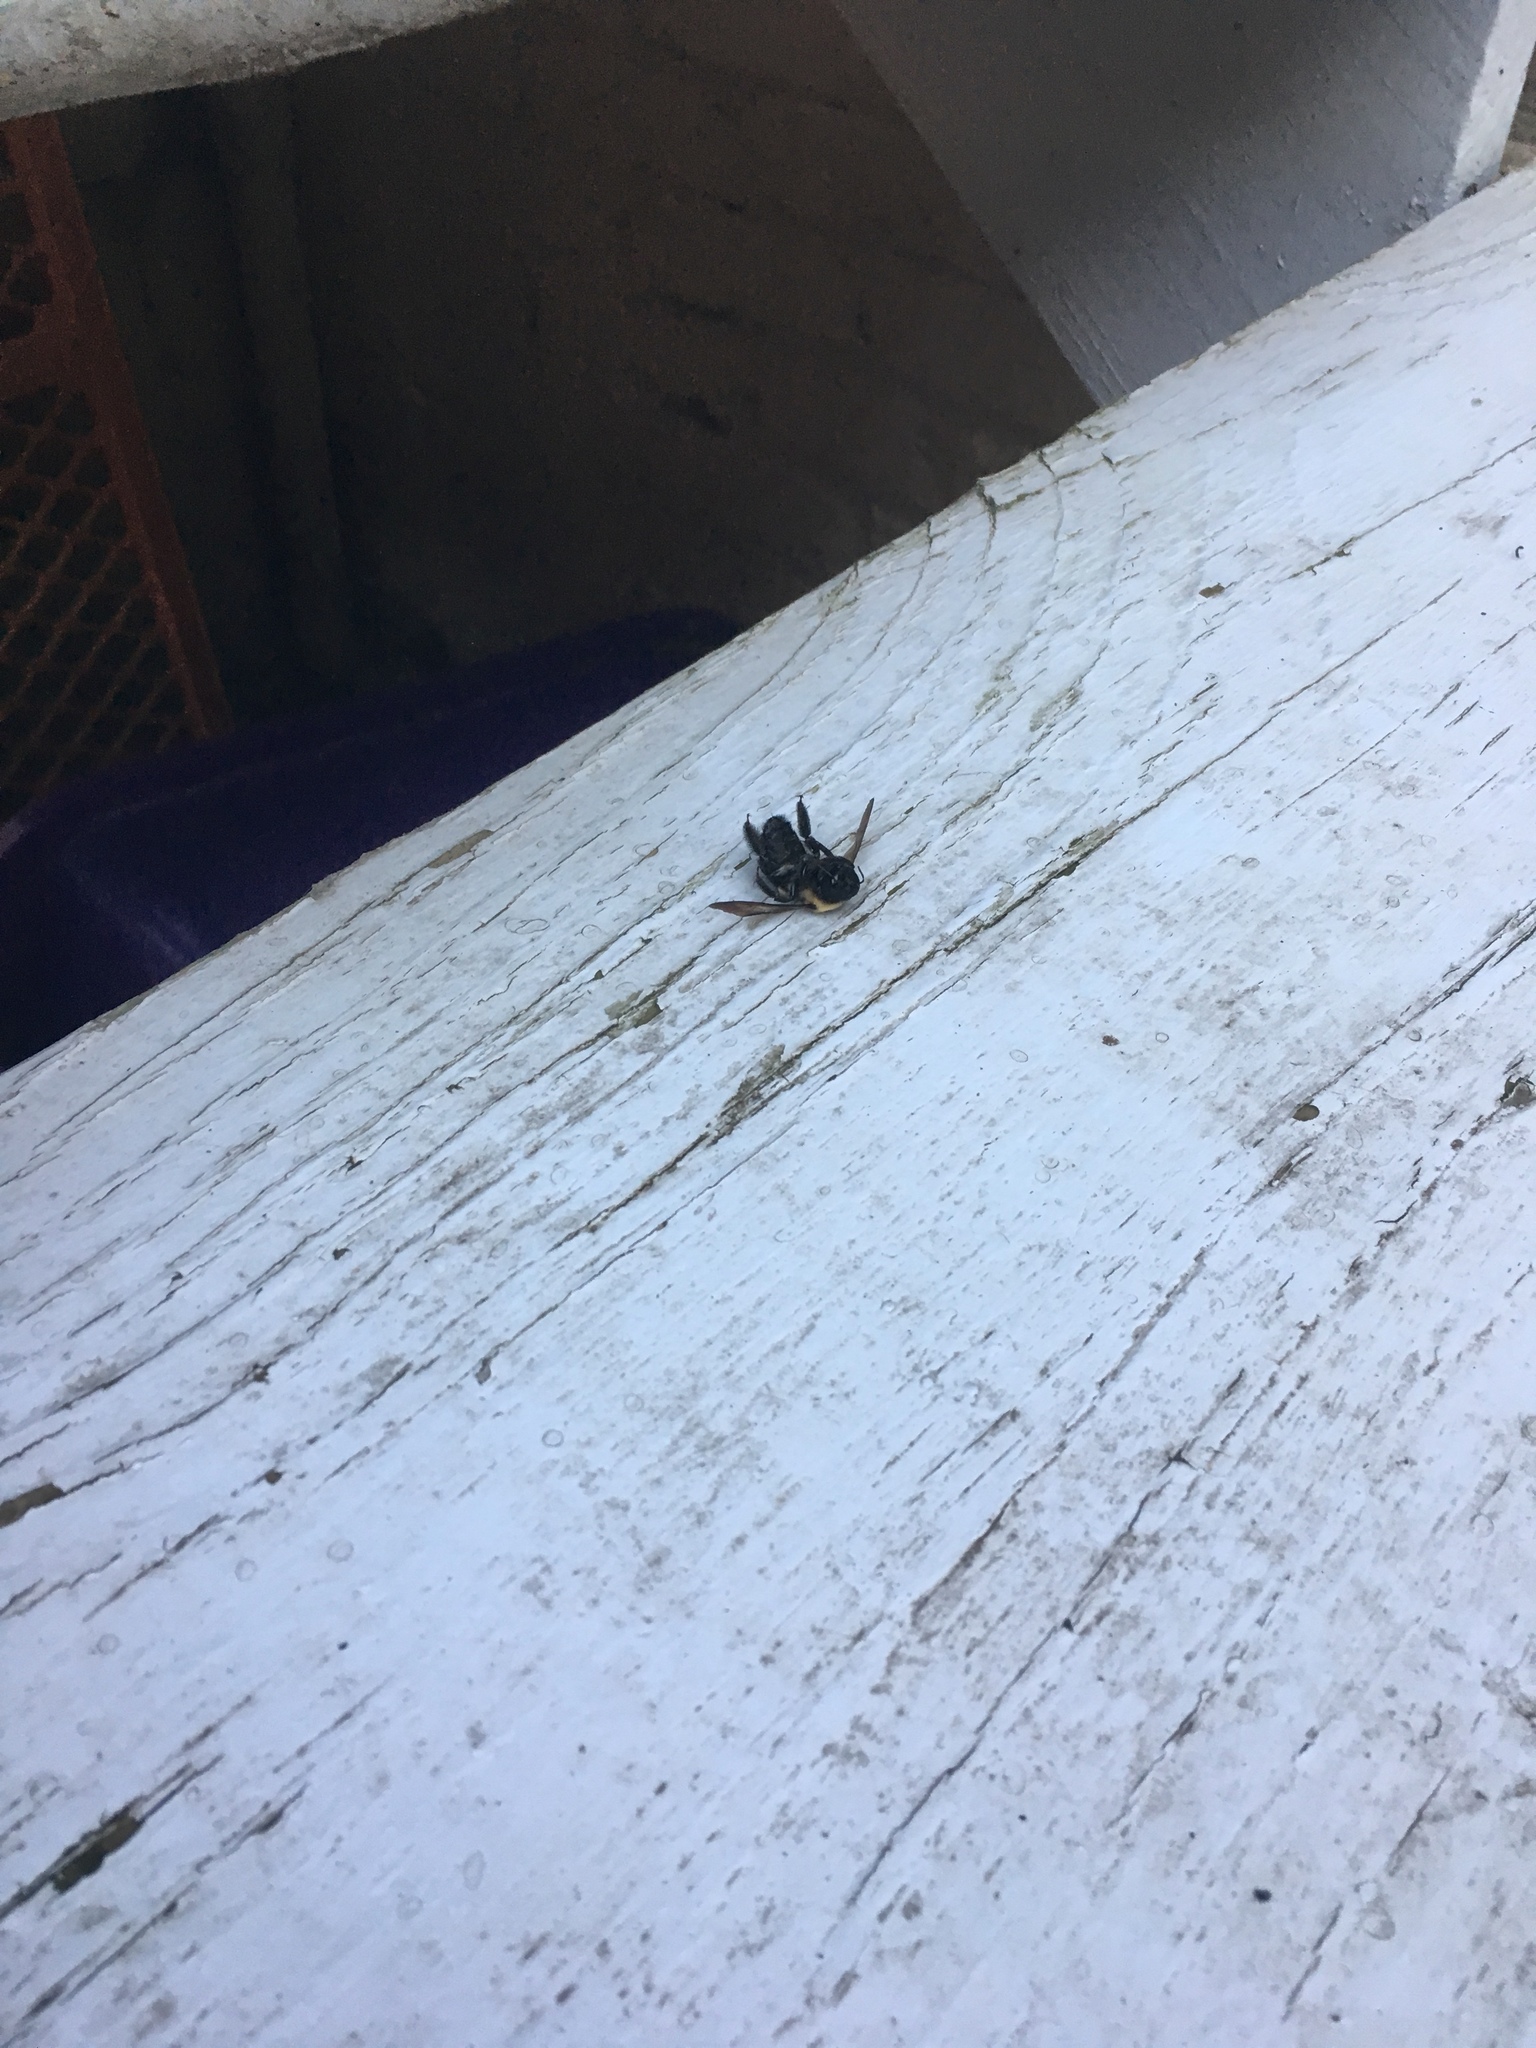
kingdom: Animalia
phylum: Arthropoda
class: Insecta
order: Hymenoptera
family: Apidae
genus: Xylocopa
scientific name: Xylocopa virginica
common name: Carpenter bee
